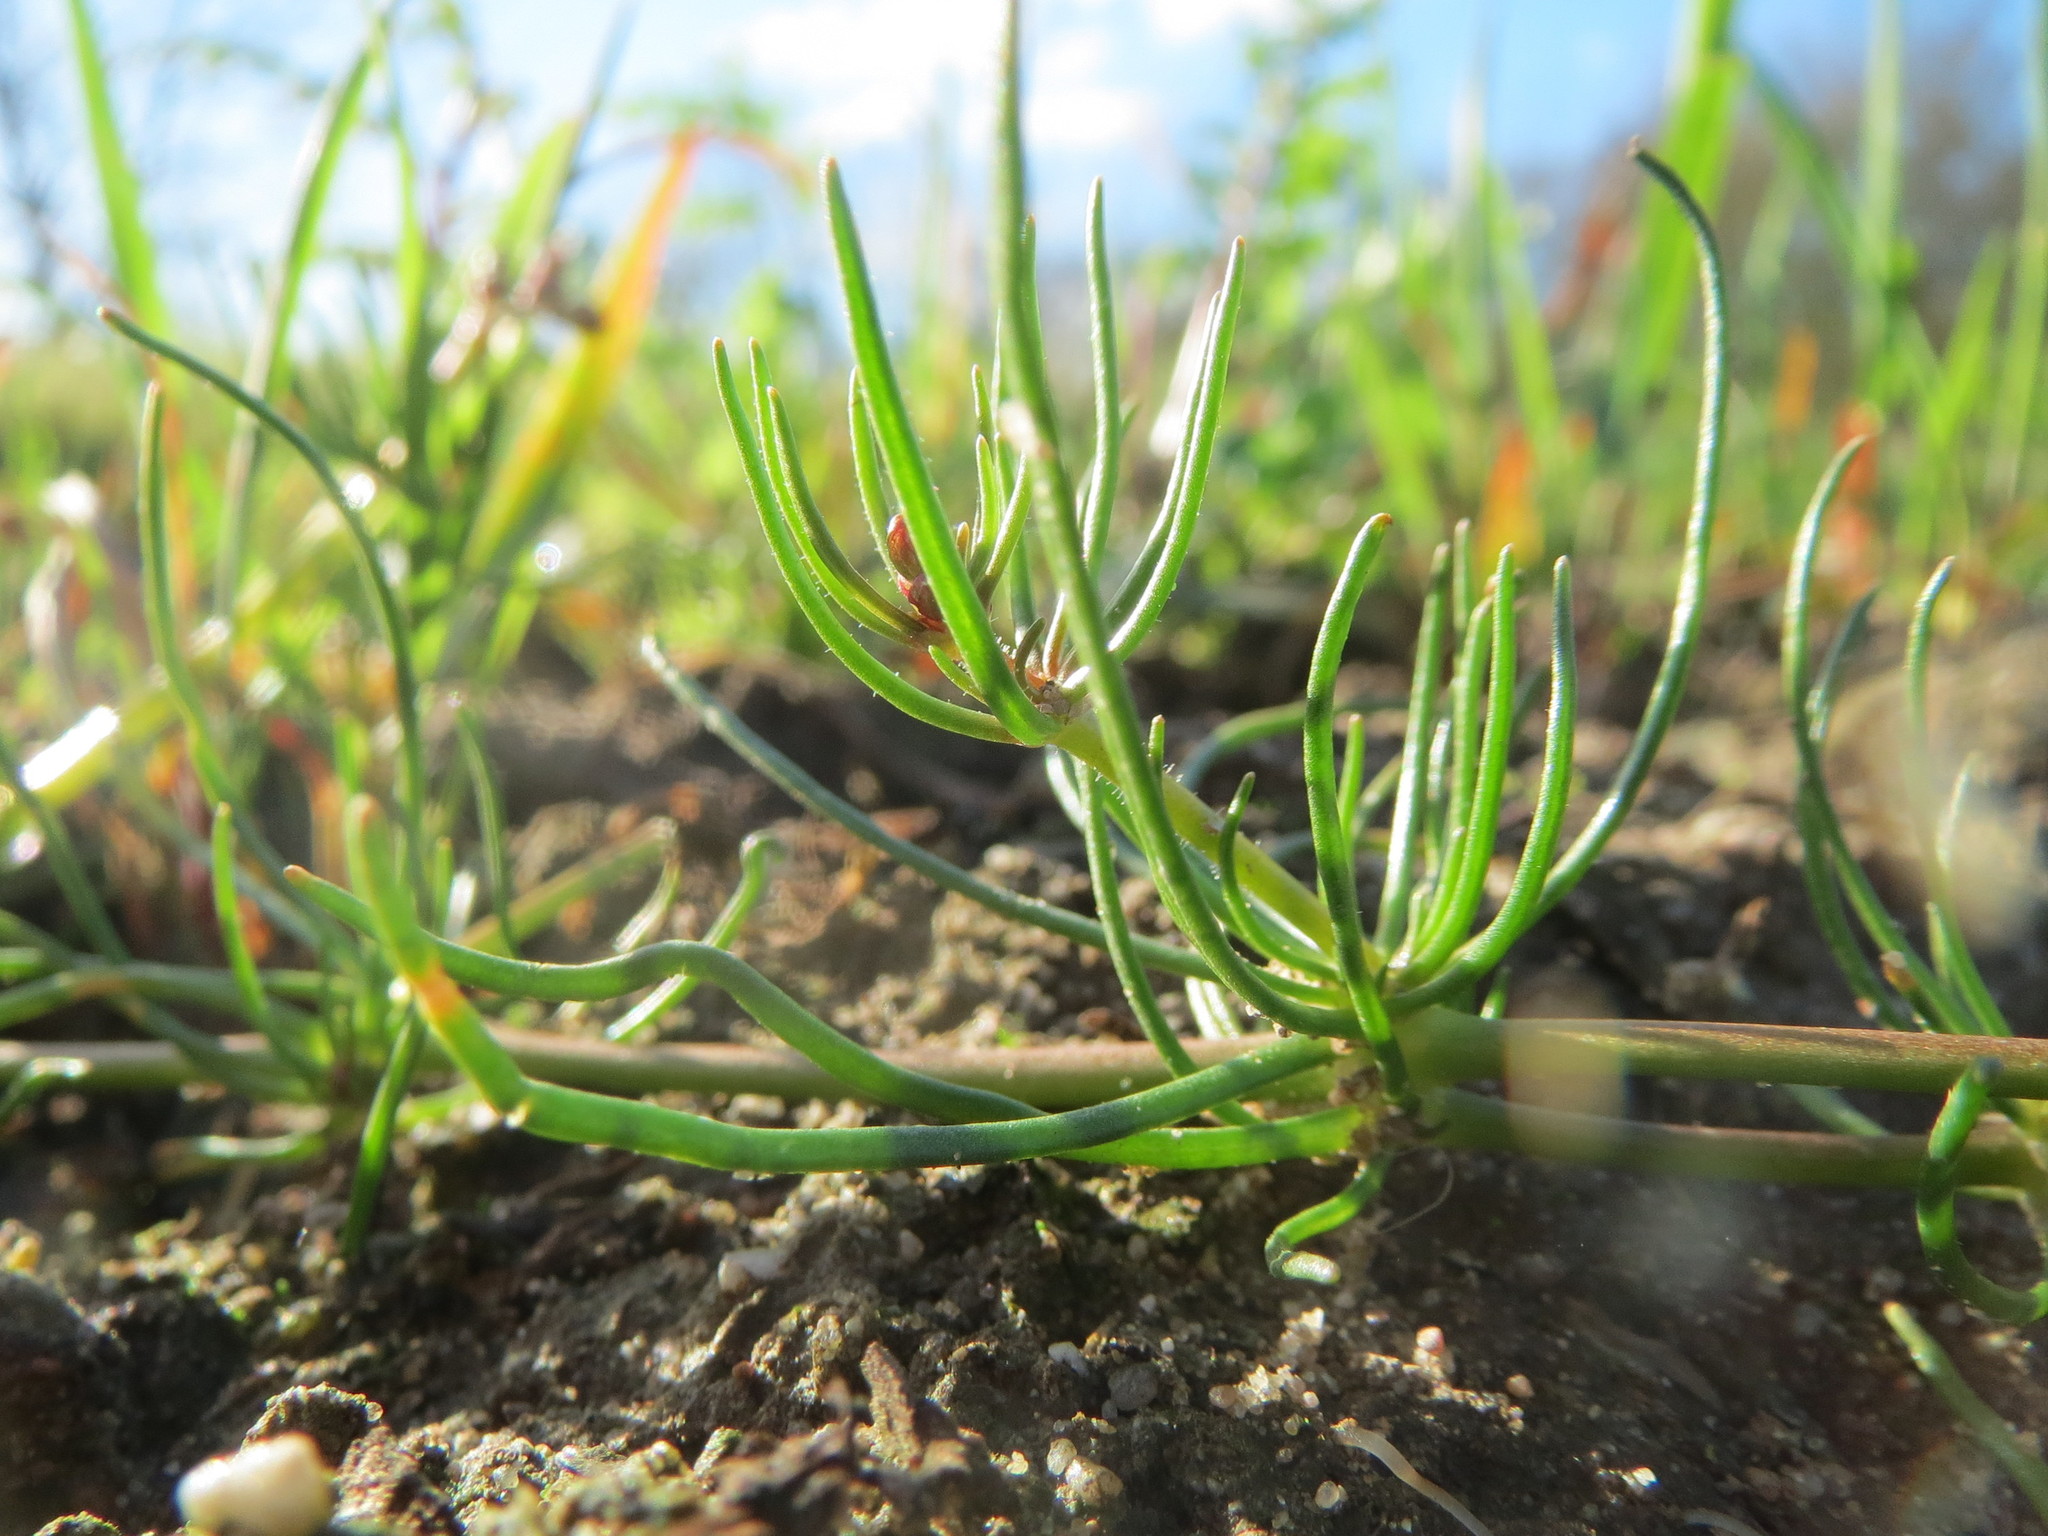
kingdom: Plantae
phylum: Tracheophyta
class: Magnoliopsida
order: Caryophyllales
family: Caryophyllaceae
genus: Spergula
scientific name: Spergula arvensis
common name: Corn spurrey
